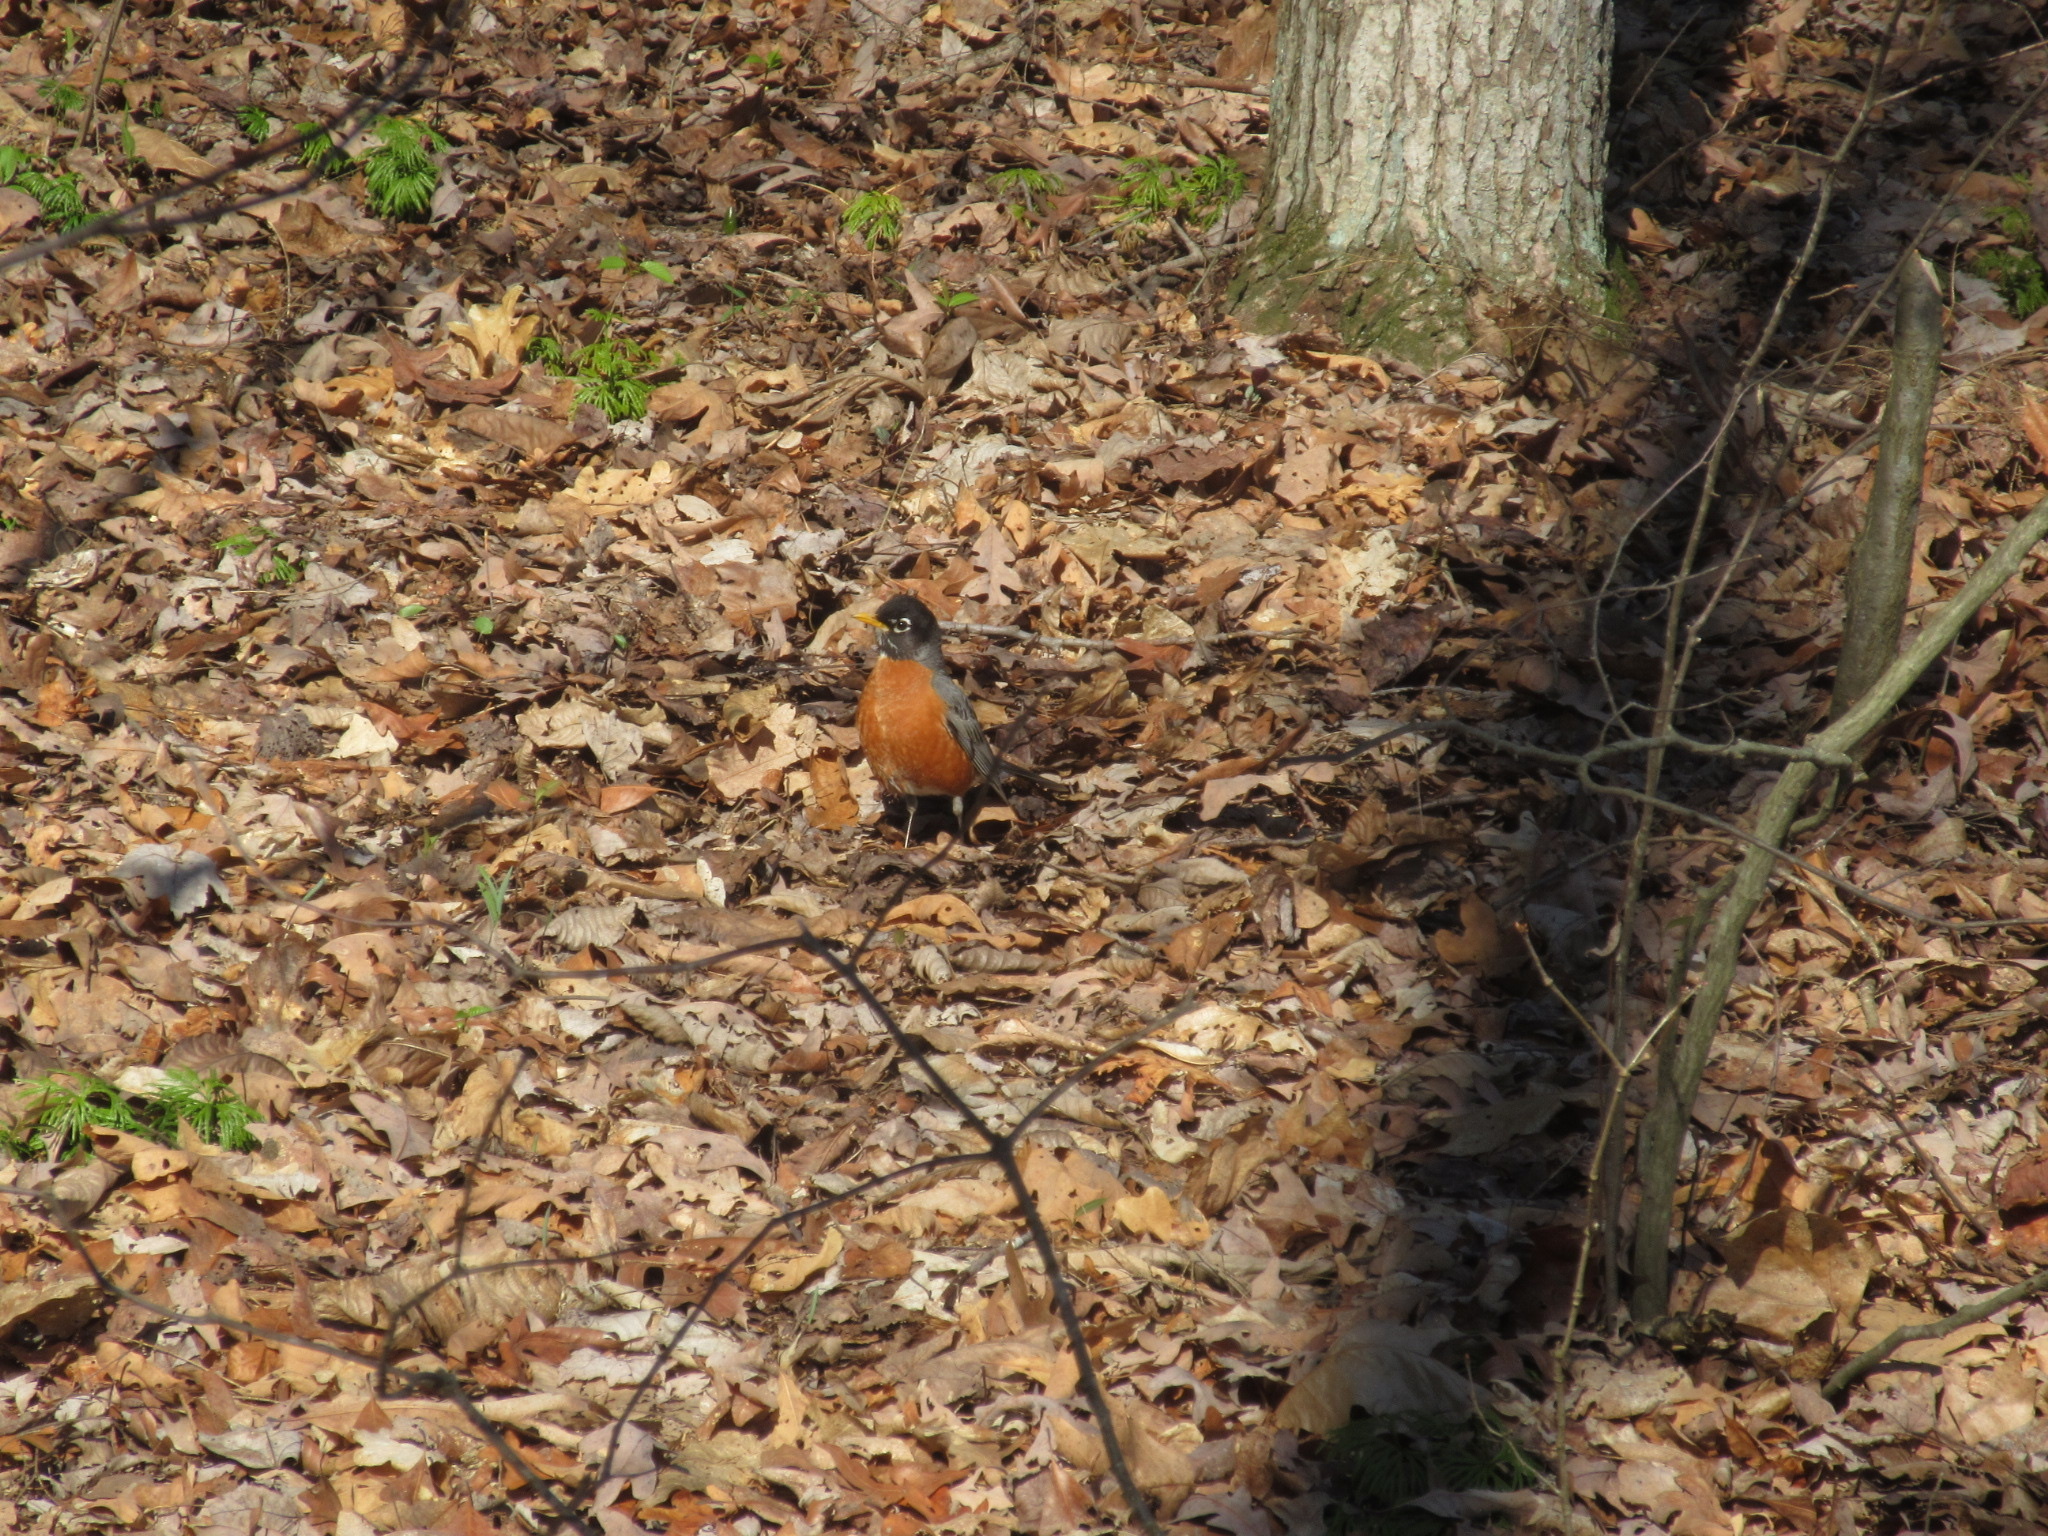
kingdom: Animalia
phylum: Chordata
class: Aves
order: Passeriformes
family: Turdidae
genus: Turdus
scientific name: Turdus migratorius
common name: American robin
